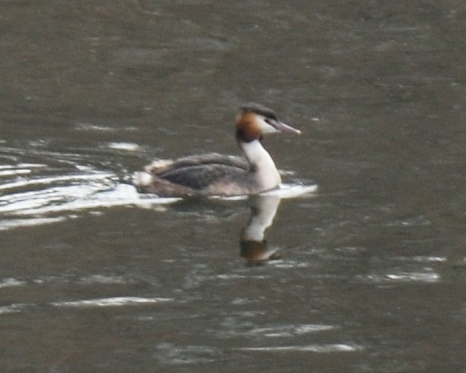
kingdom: Animalia
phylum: Chordata
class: Aves
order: Podicipediformes
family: Podicipedidae
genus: Podiceps
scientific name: Podiceps cristatus
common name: Great crested grebe
